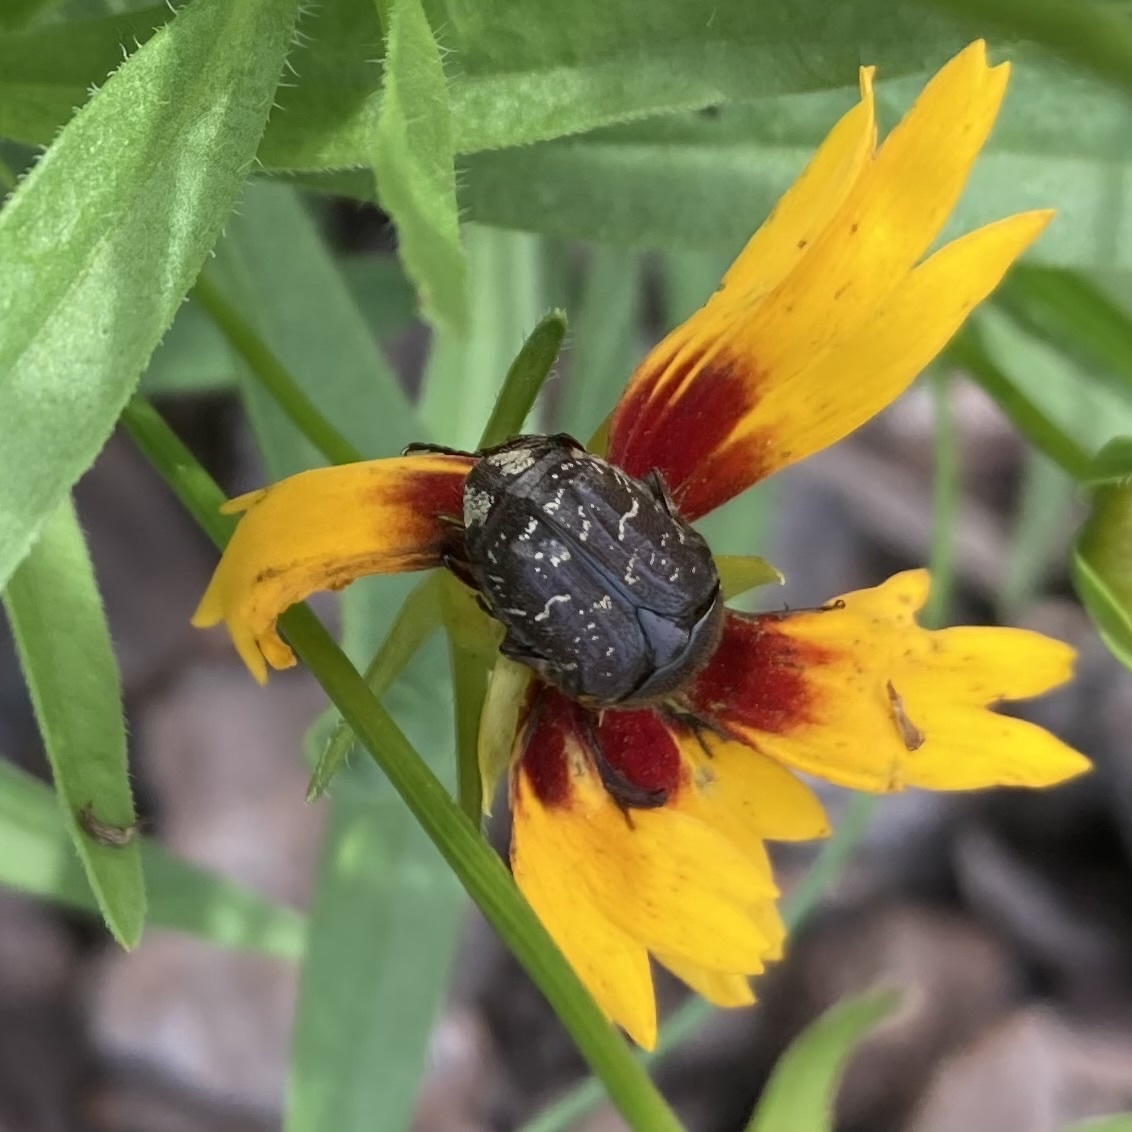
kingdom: Animalia
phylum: Arthropoda
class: Insecta
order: Coleoptera
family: Scarabaeidae
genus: Euphoria
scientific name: Euphoria sepulcralis
